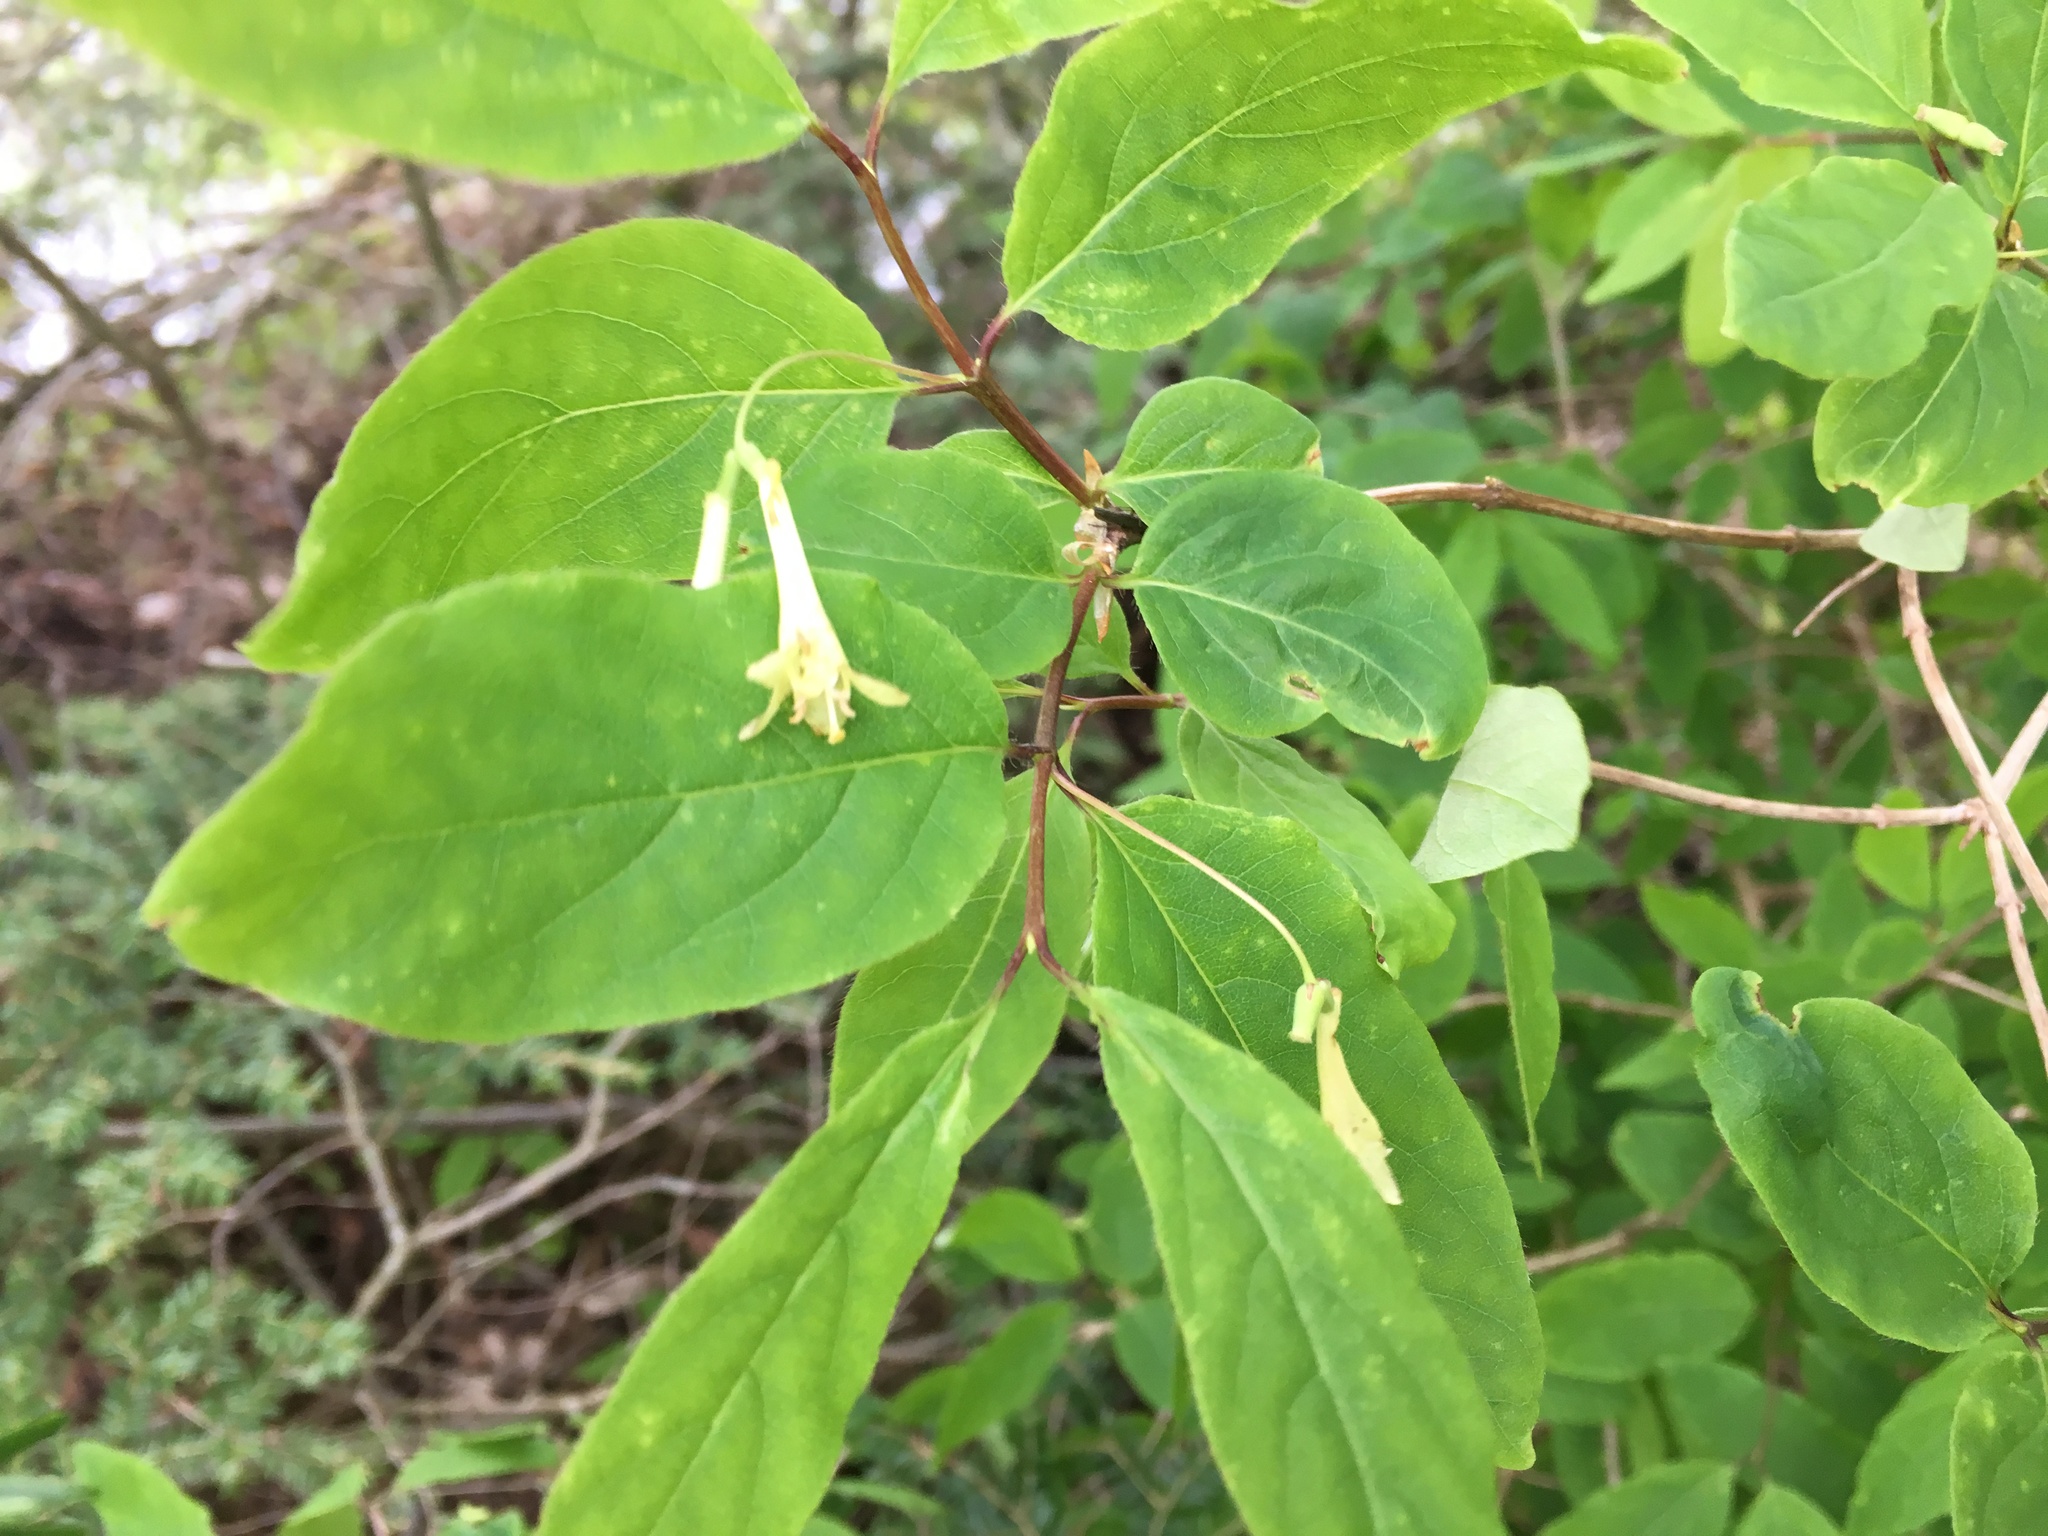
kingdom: Plantae
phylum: Tracheophyta
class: Magnoliopsida
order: Dipsacales
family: Caprifoliaceae
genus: Lonicera
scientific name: Lonicera canadensis
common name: American fly-honeysuckle
